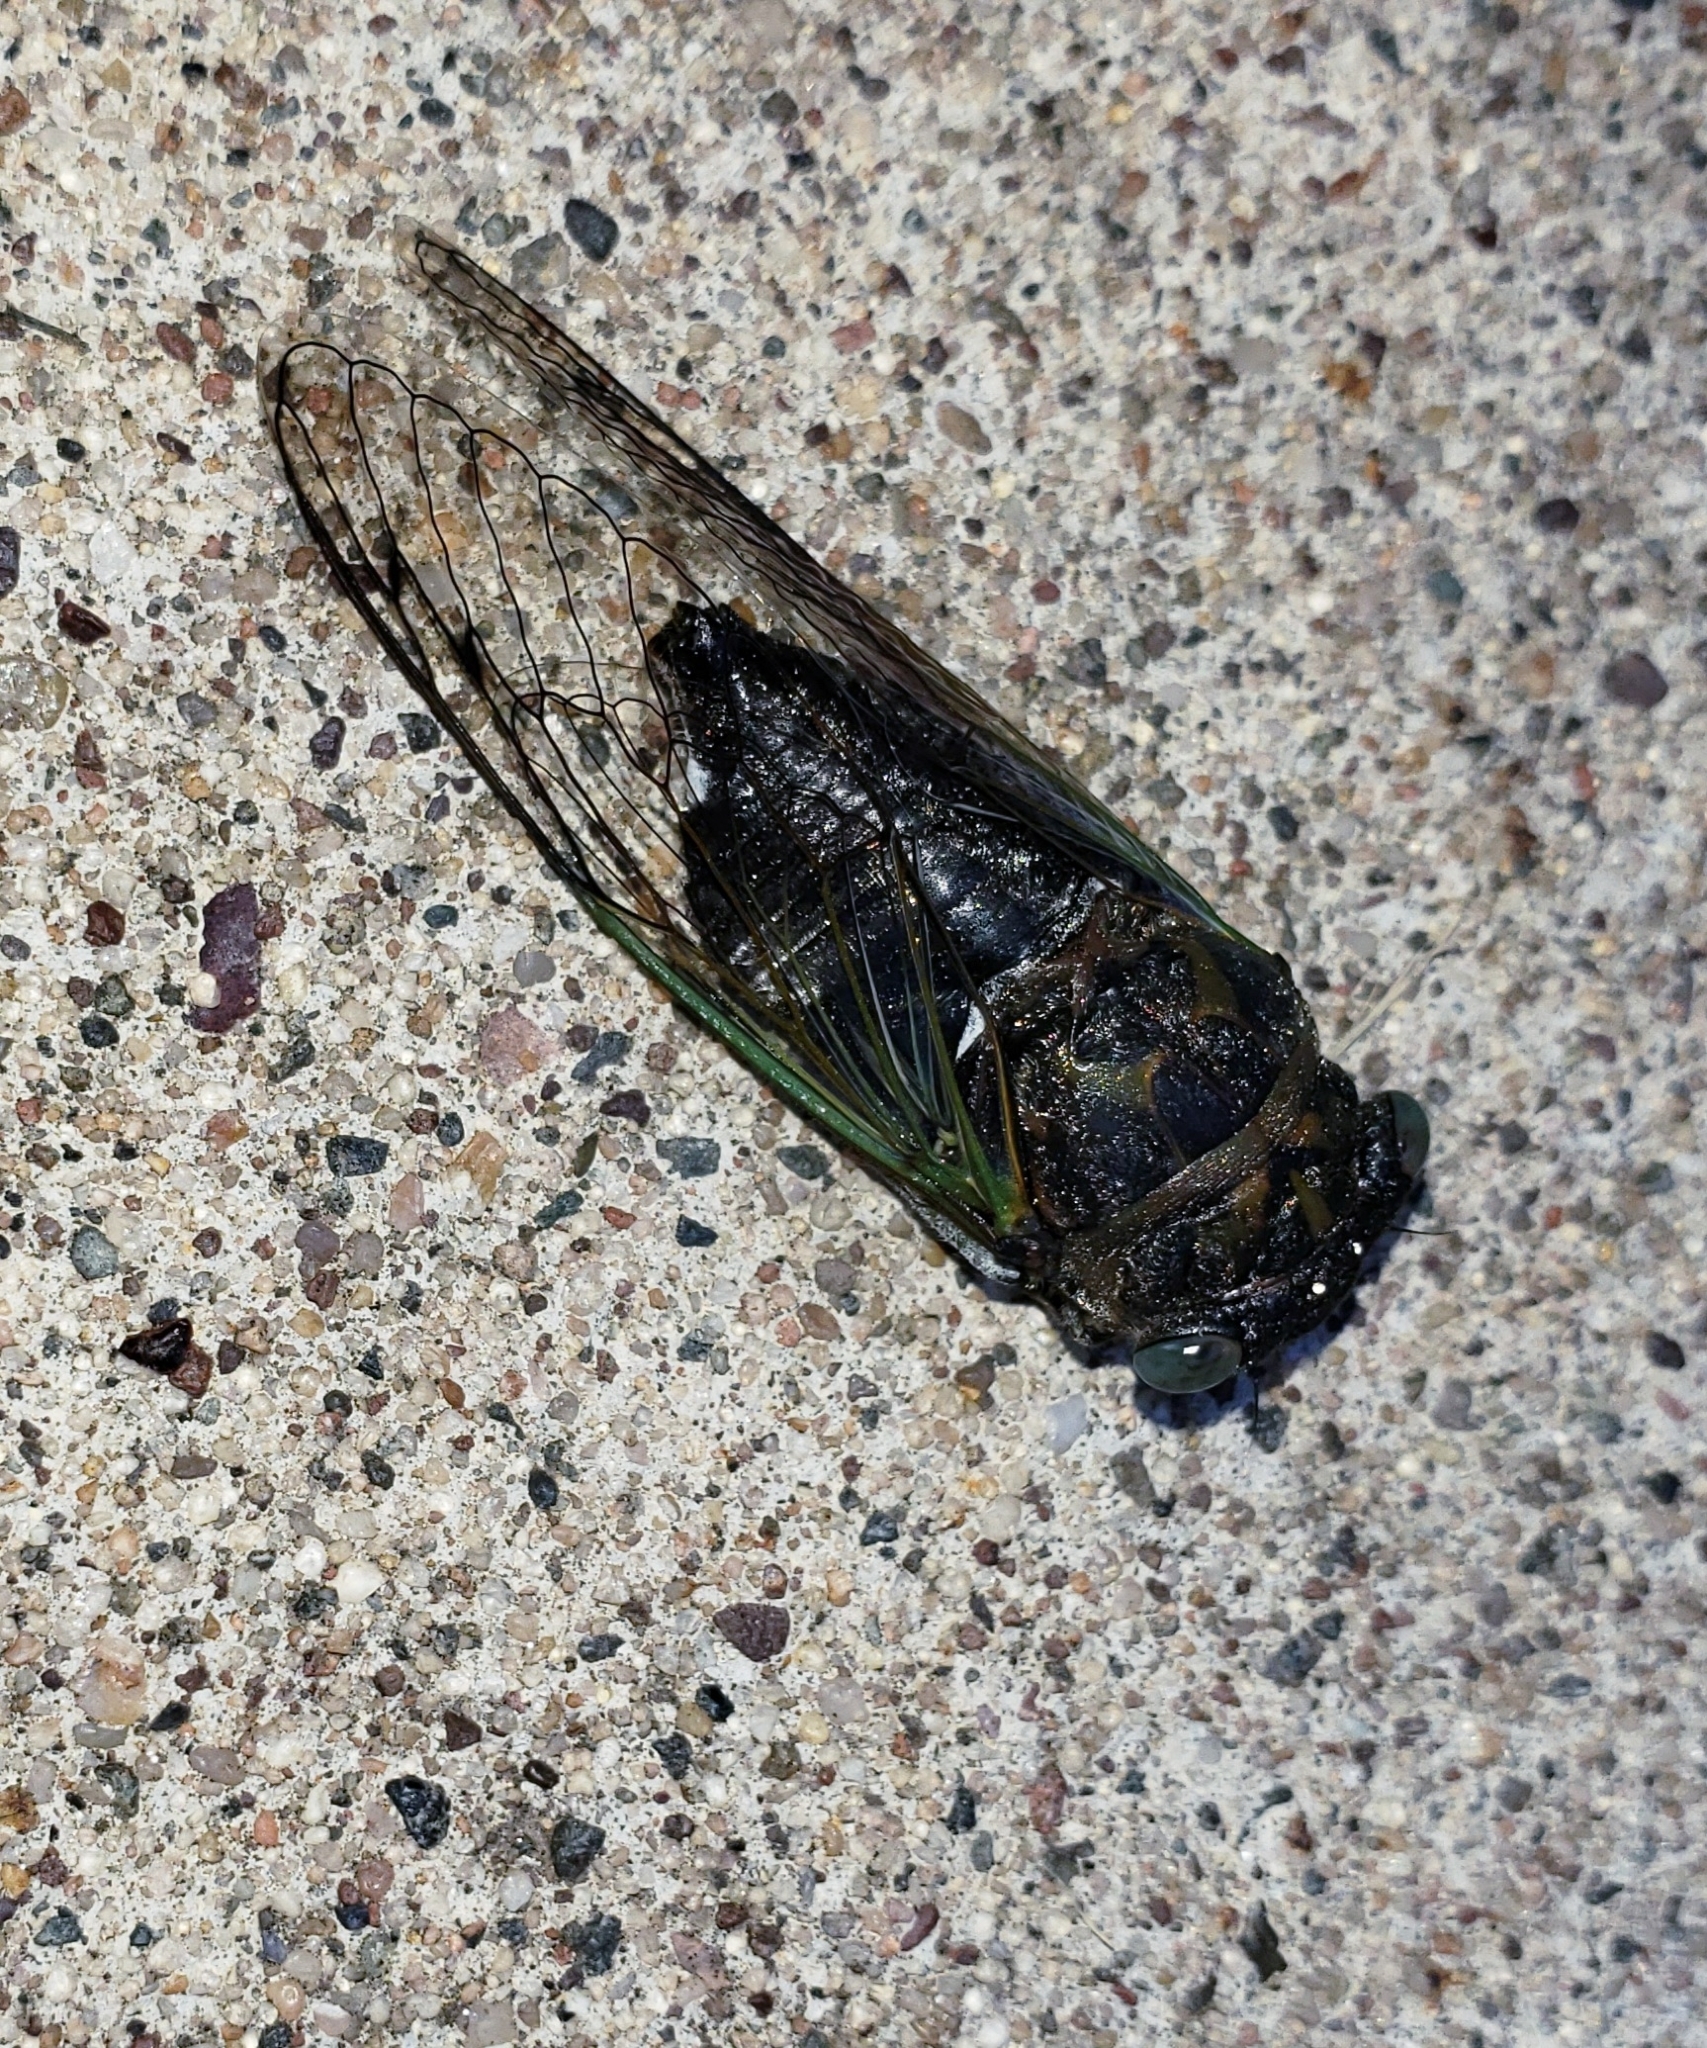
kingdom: Animalia
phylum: Arthropoda
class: Insecta
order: Hemiptera
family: Cicadidae
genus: Neotibicen
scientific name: Neotibicen canicularis
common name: God-day cicada
